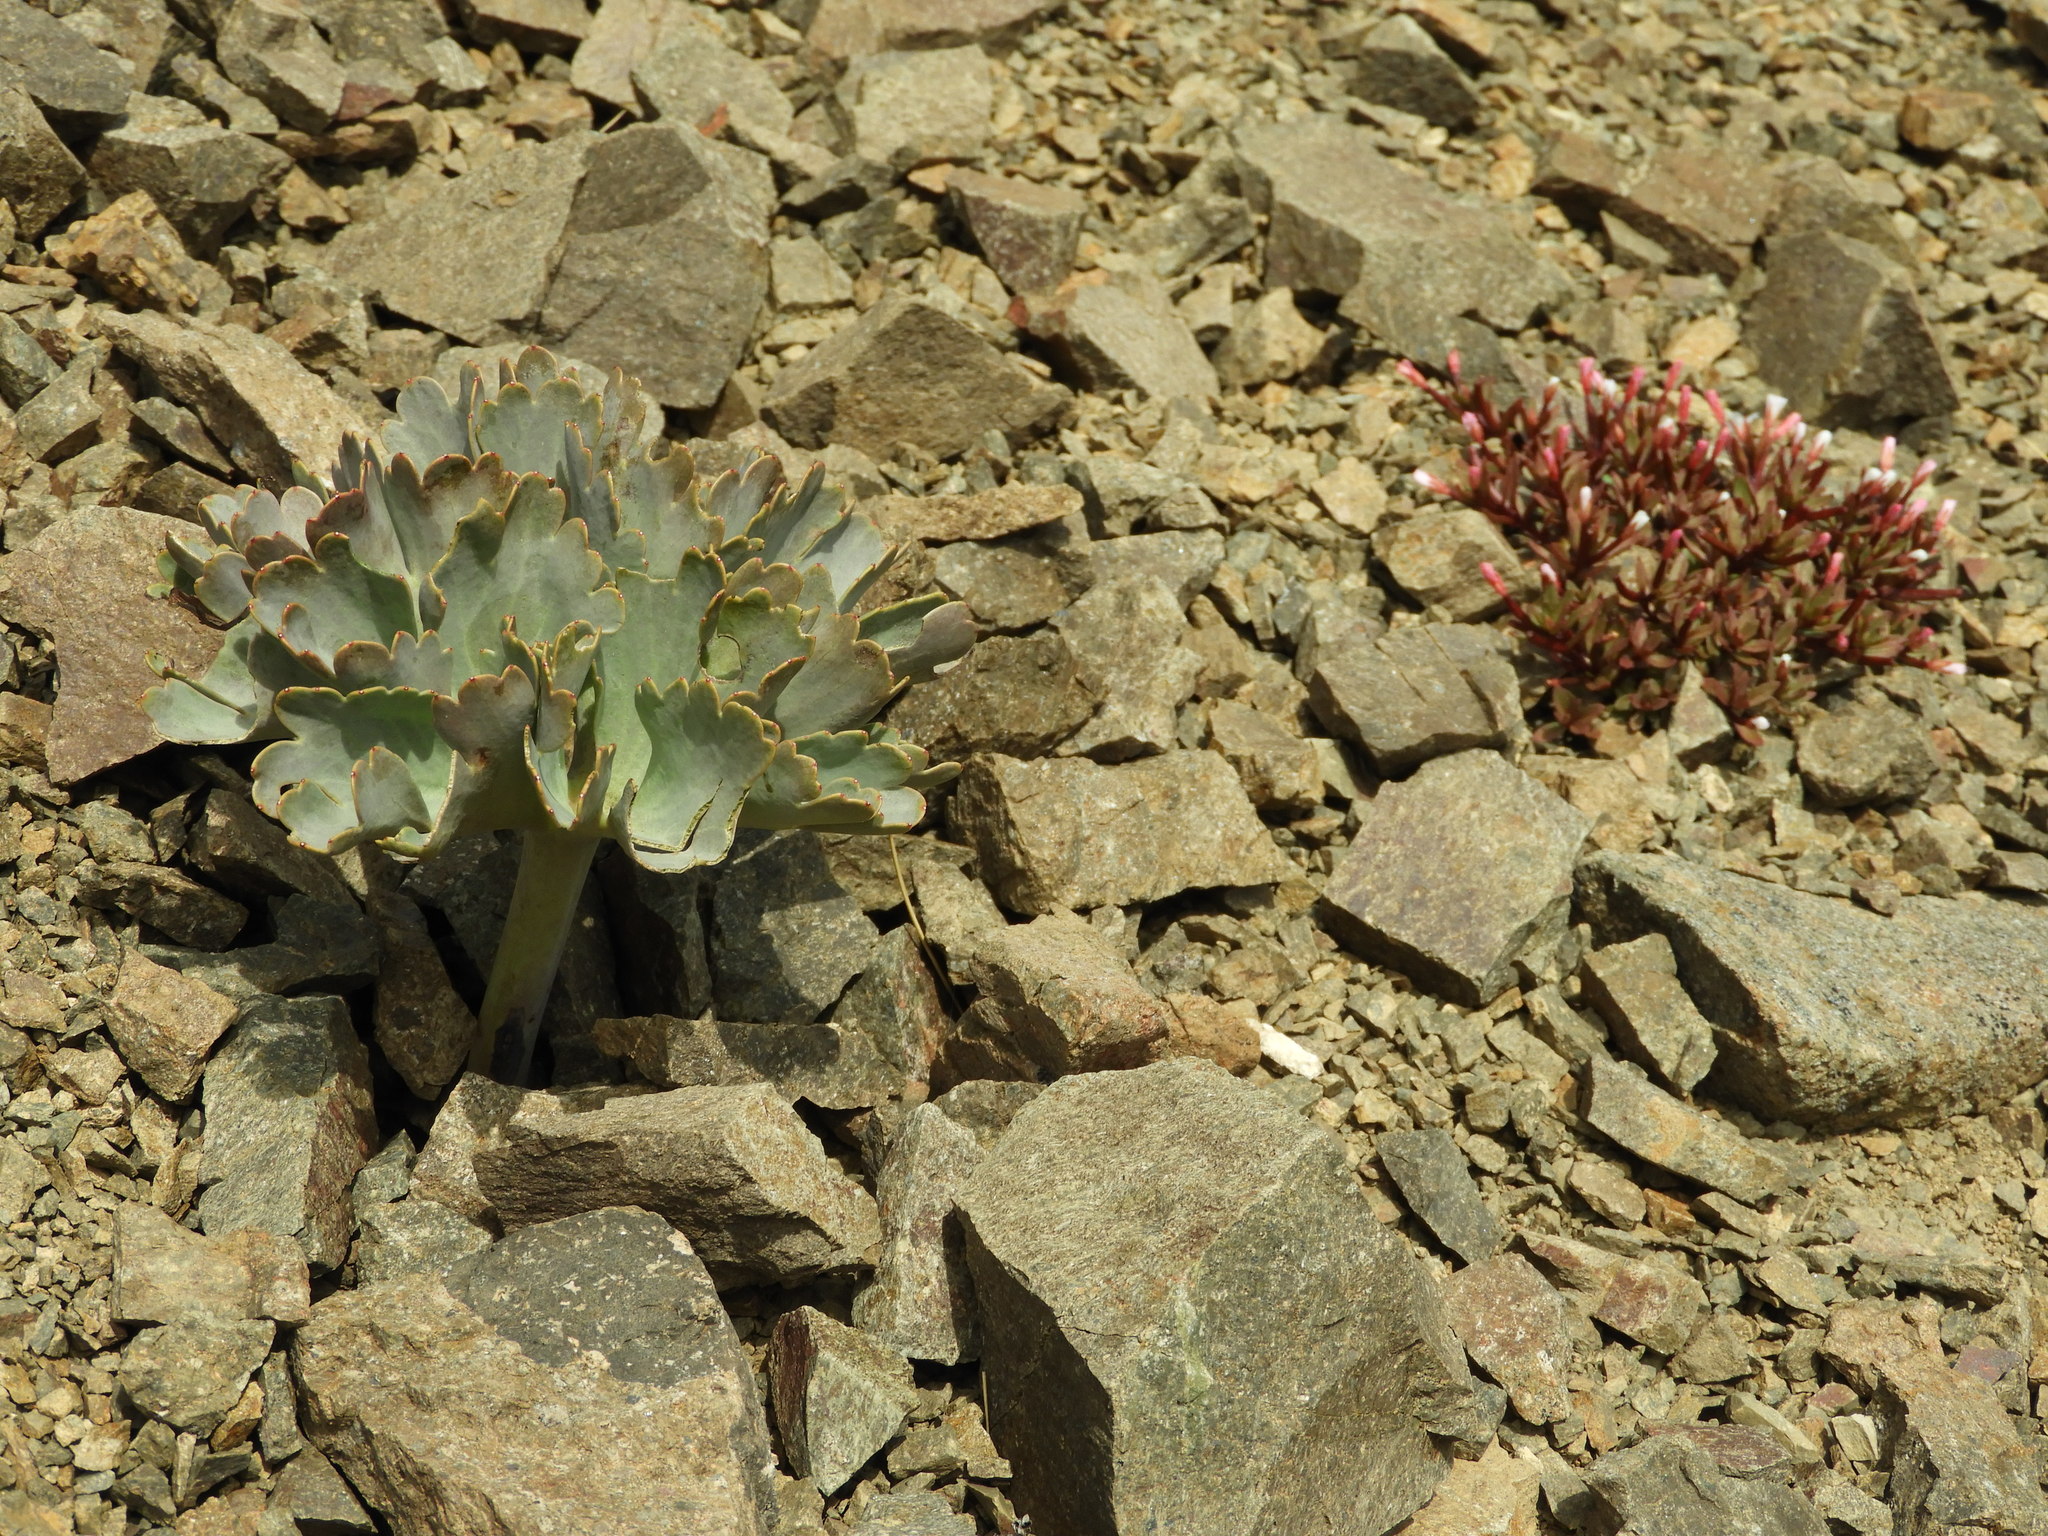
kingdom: Plantae
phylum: Tracheophyta
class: Magnoliopsida
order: Ranunculales
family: Ranunculaceae
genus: Ranunculus
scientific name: Ranunculus pilifer
